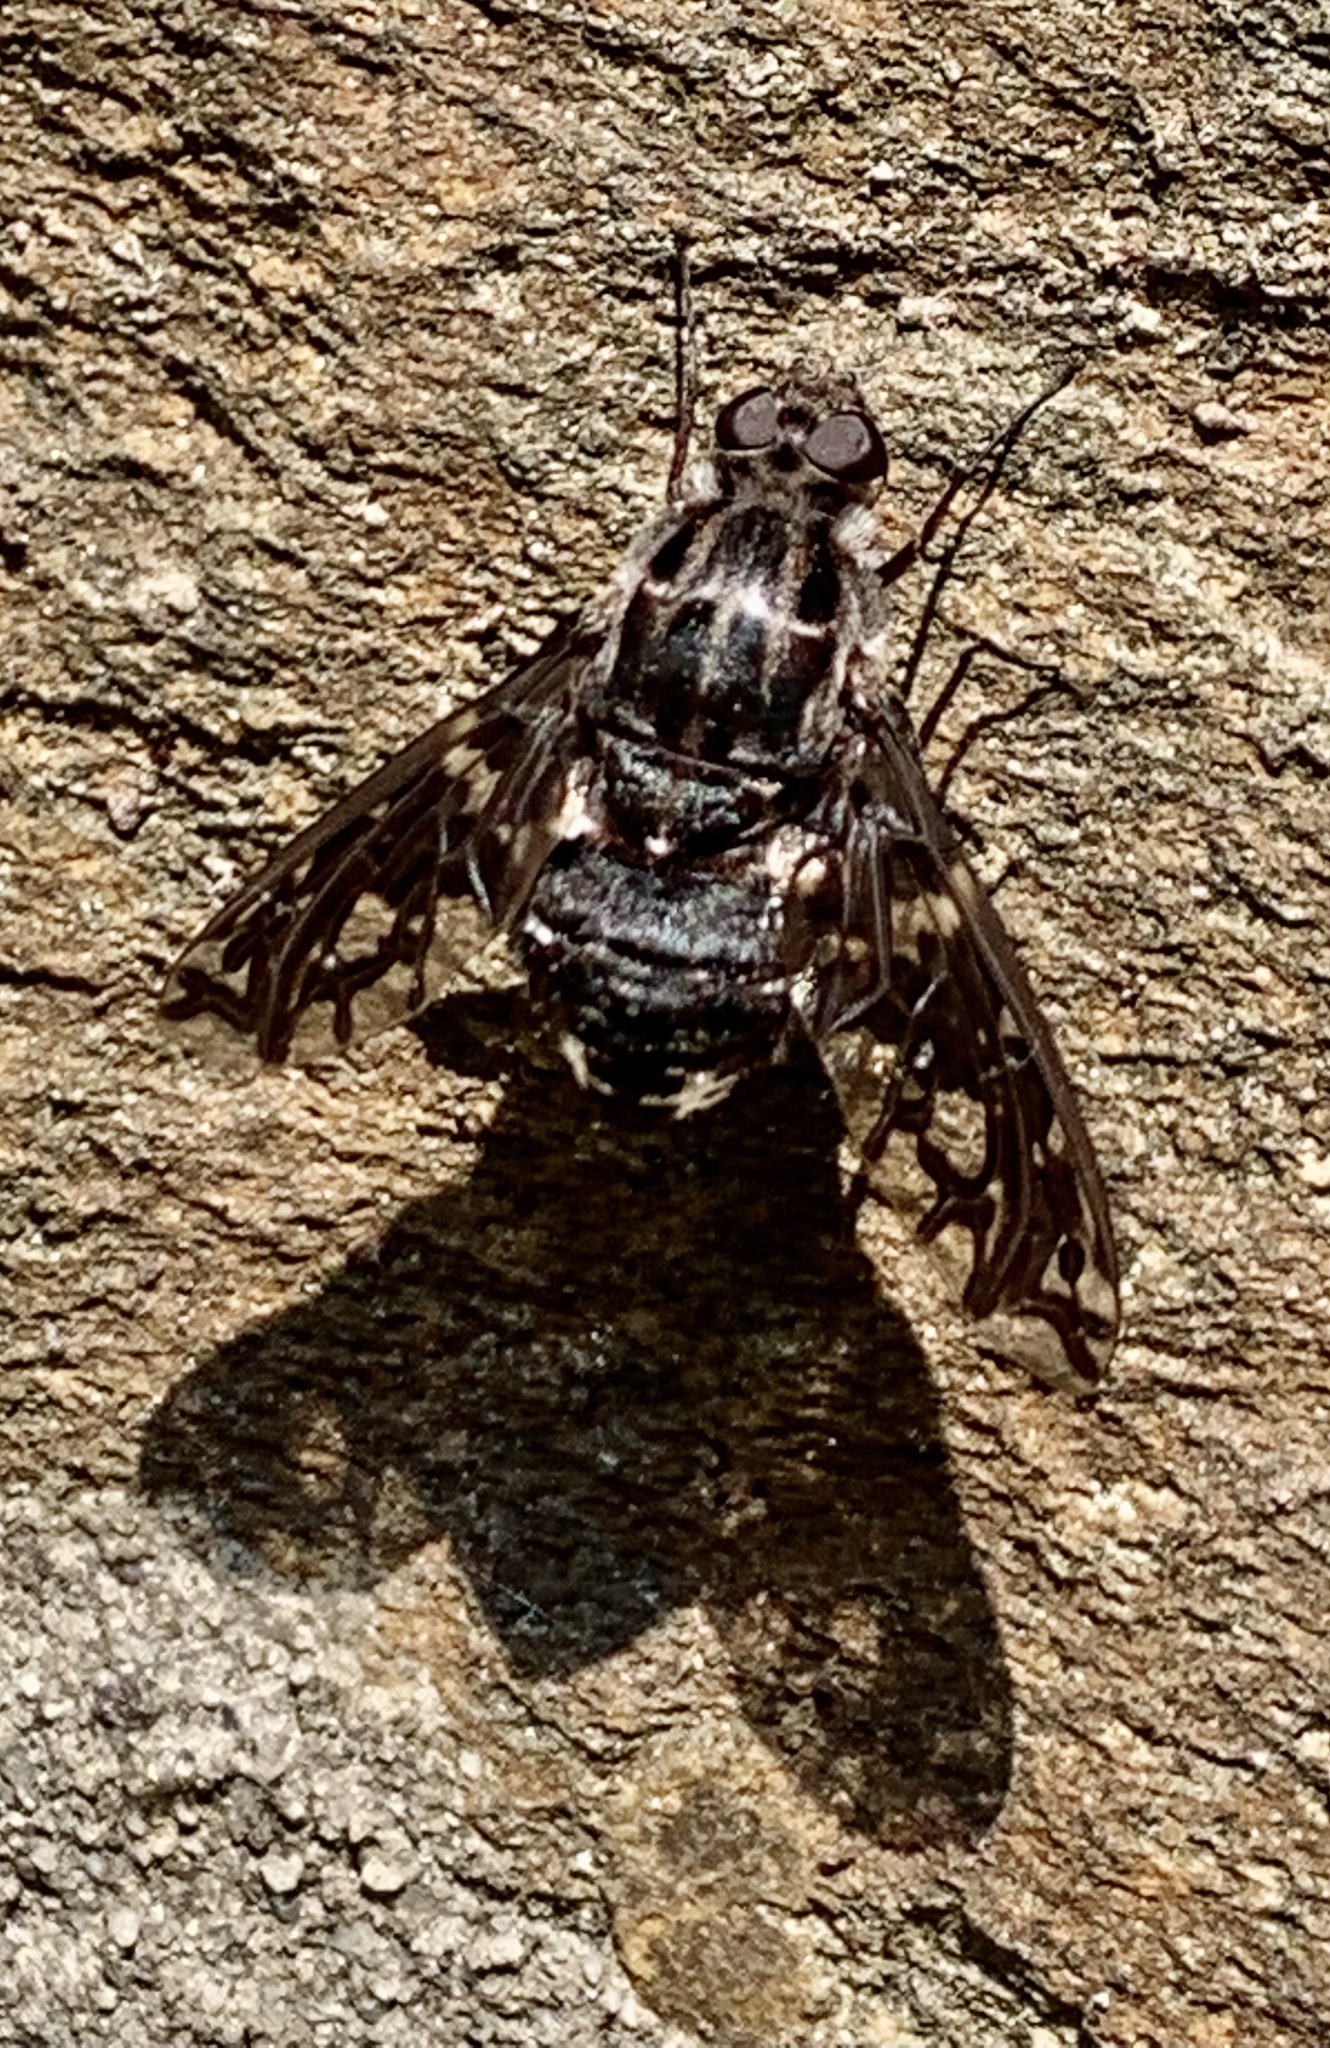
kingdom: Animalia
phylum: Arthropoda
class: Insecta
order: Diptera
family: Bombyliidae
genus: Xenox
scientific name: Xenox tigrinus
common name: Tiger bee fly
